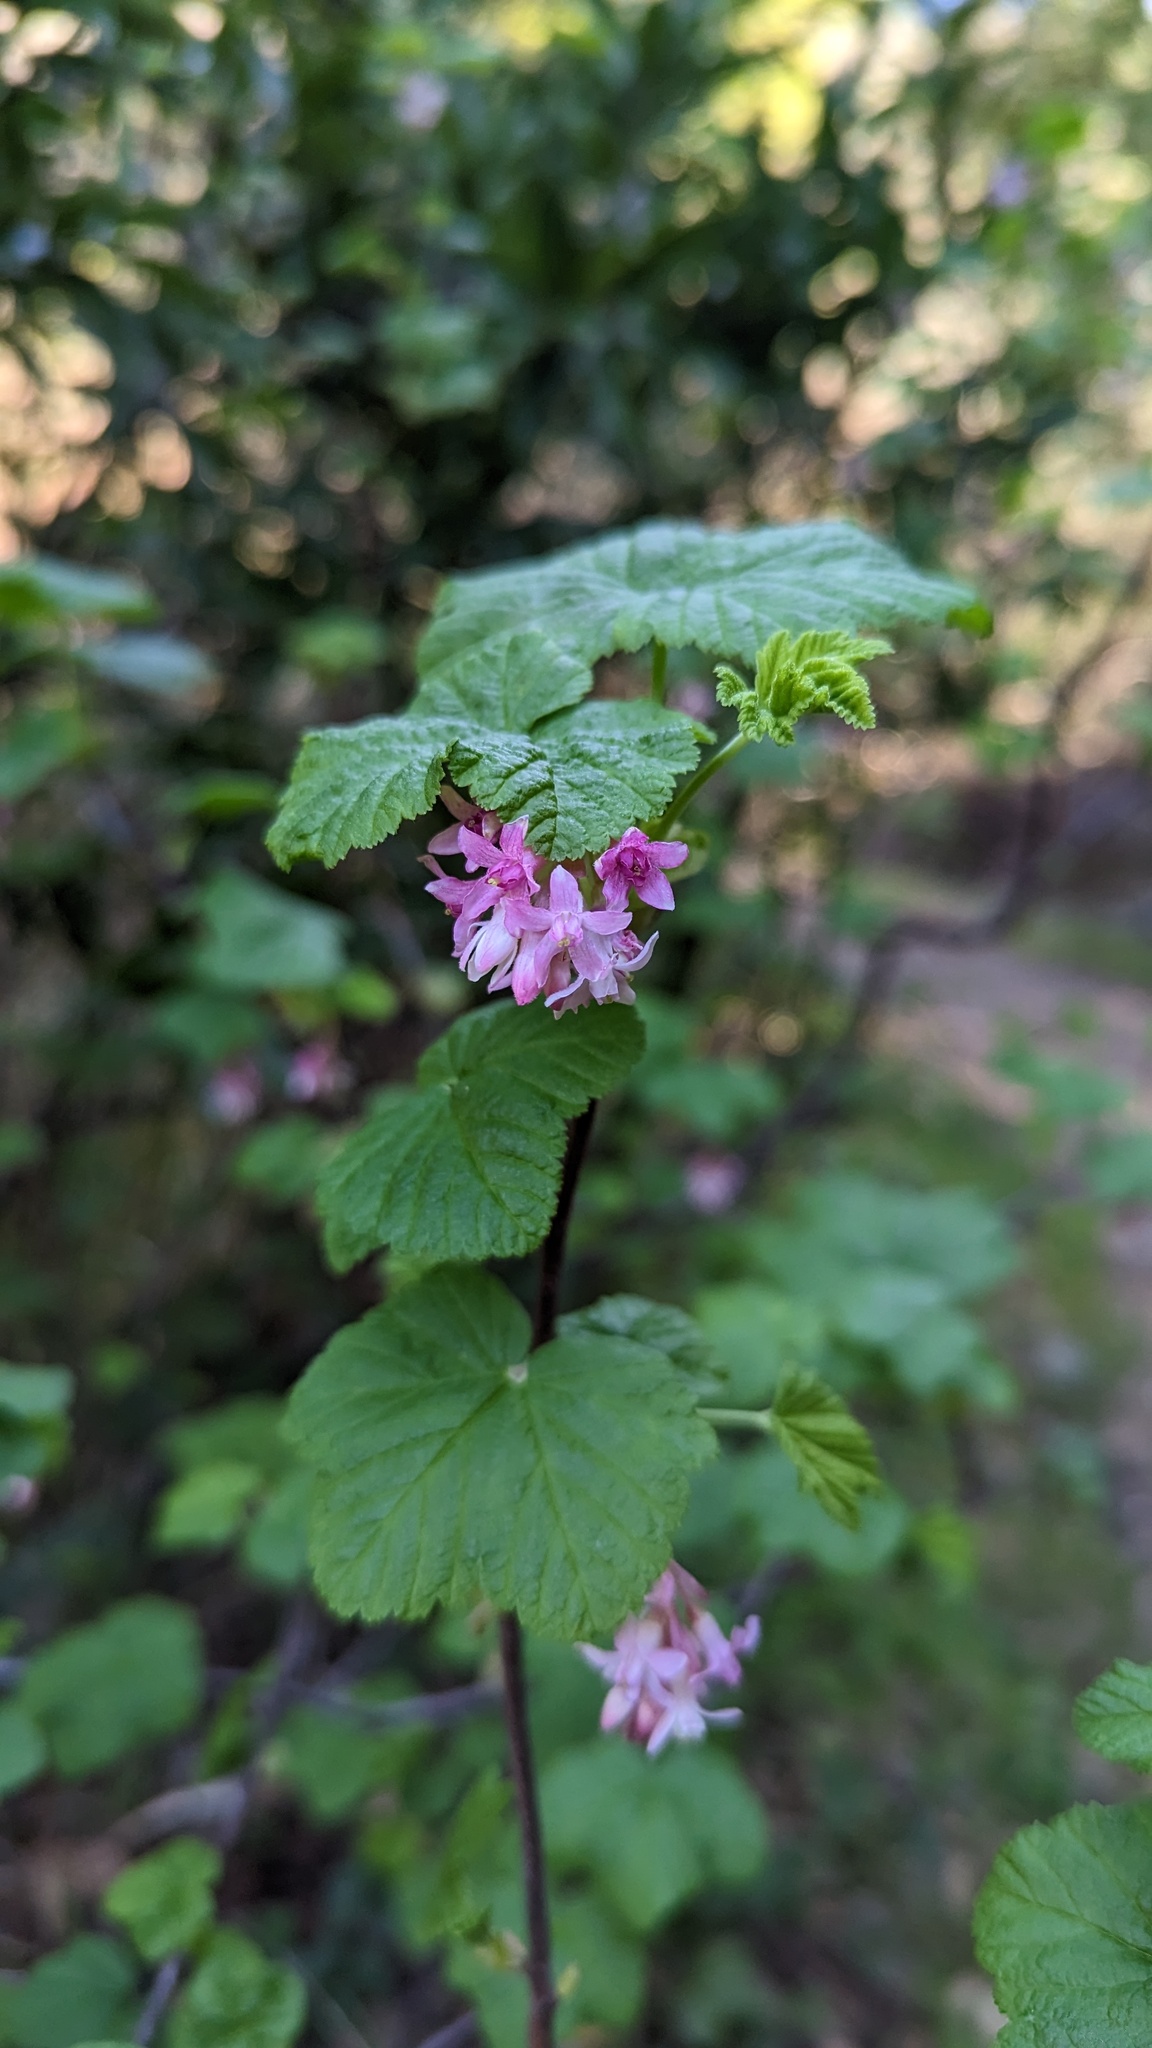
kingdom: Plantae
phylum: Tracheophyta
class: Magnoliopsida
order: Saxifragales
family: Grossulariaceae
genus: Ribes
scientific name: Ribes sanguineum
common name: Flowering currant
